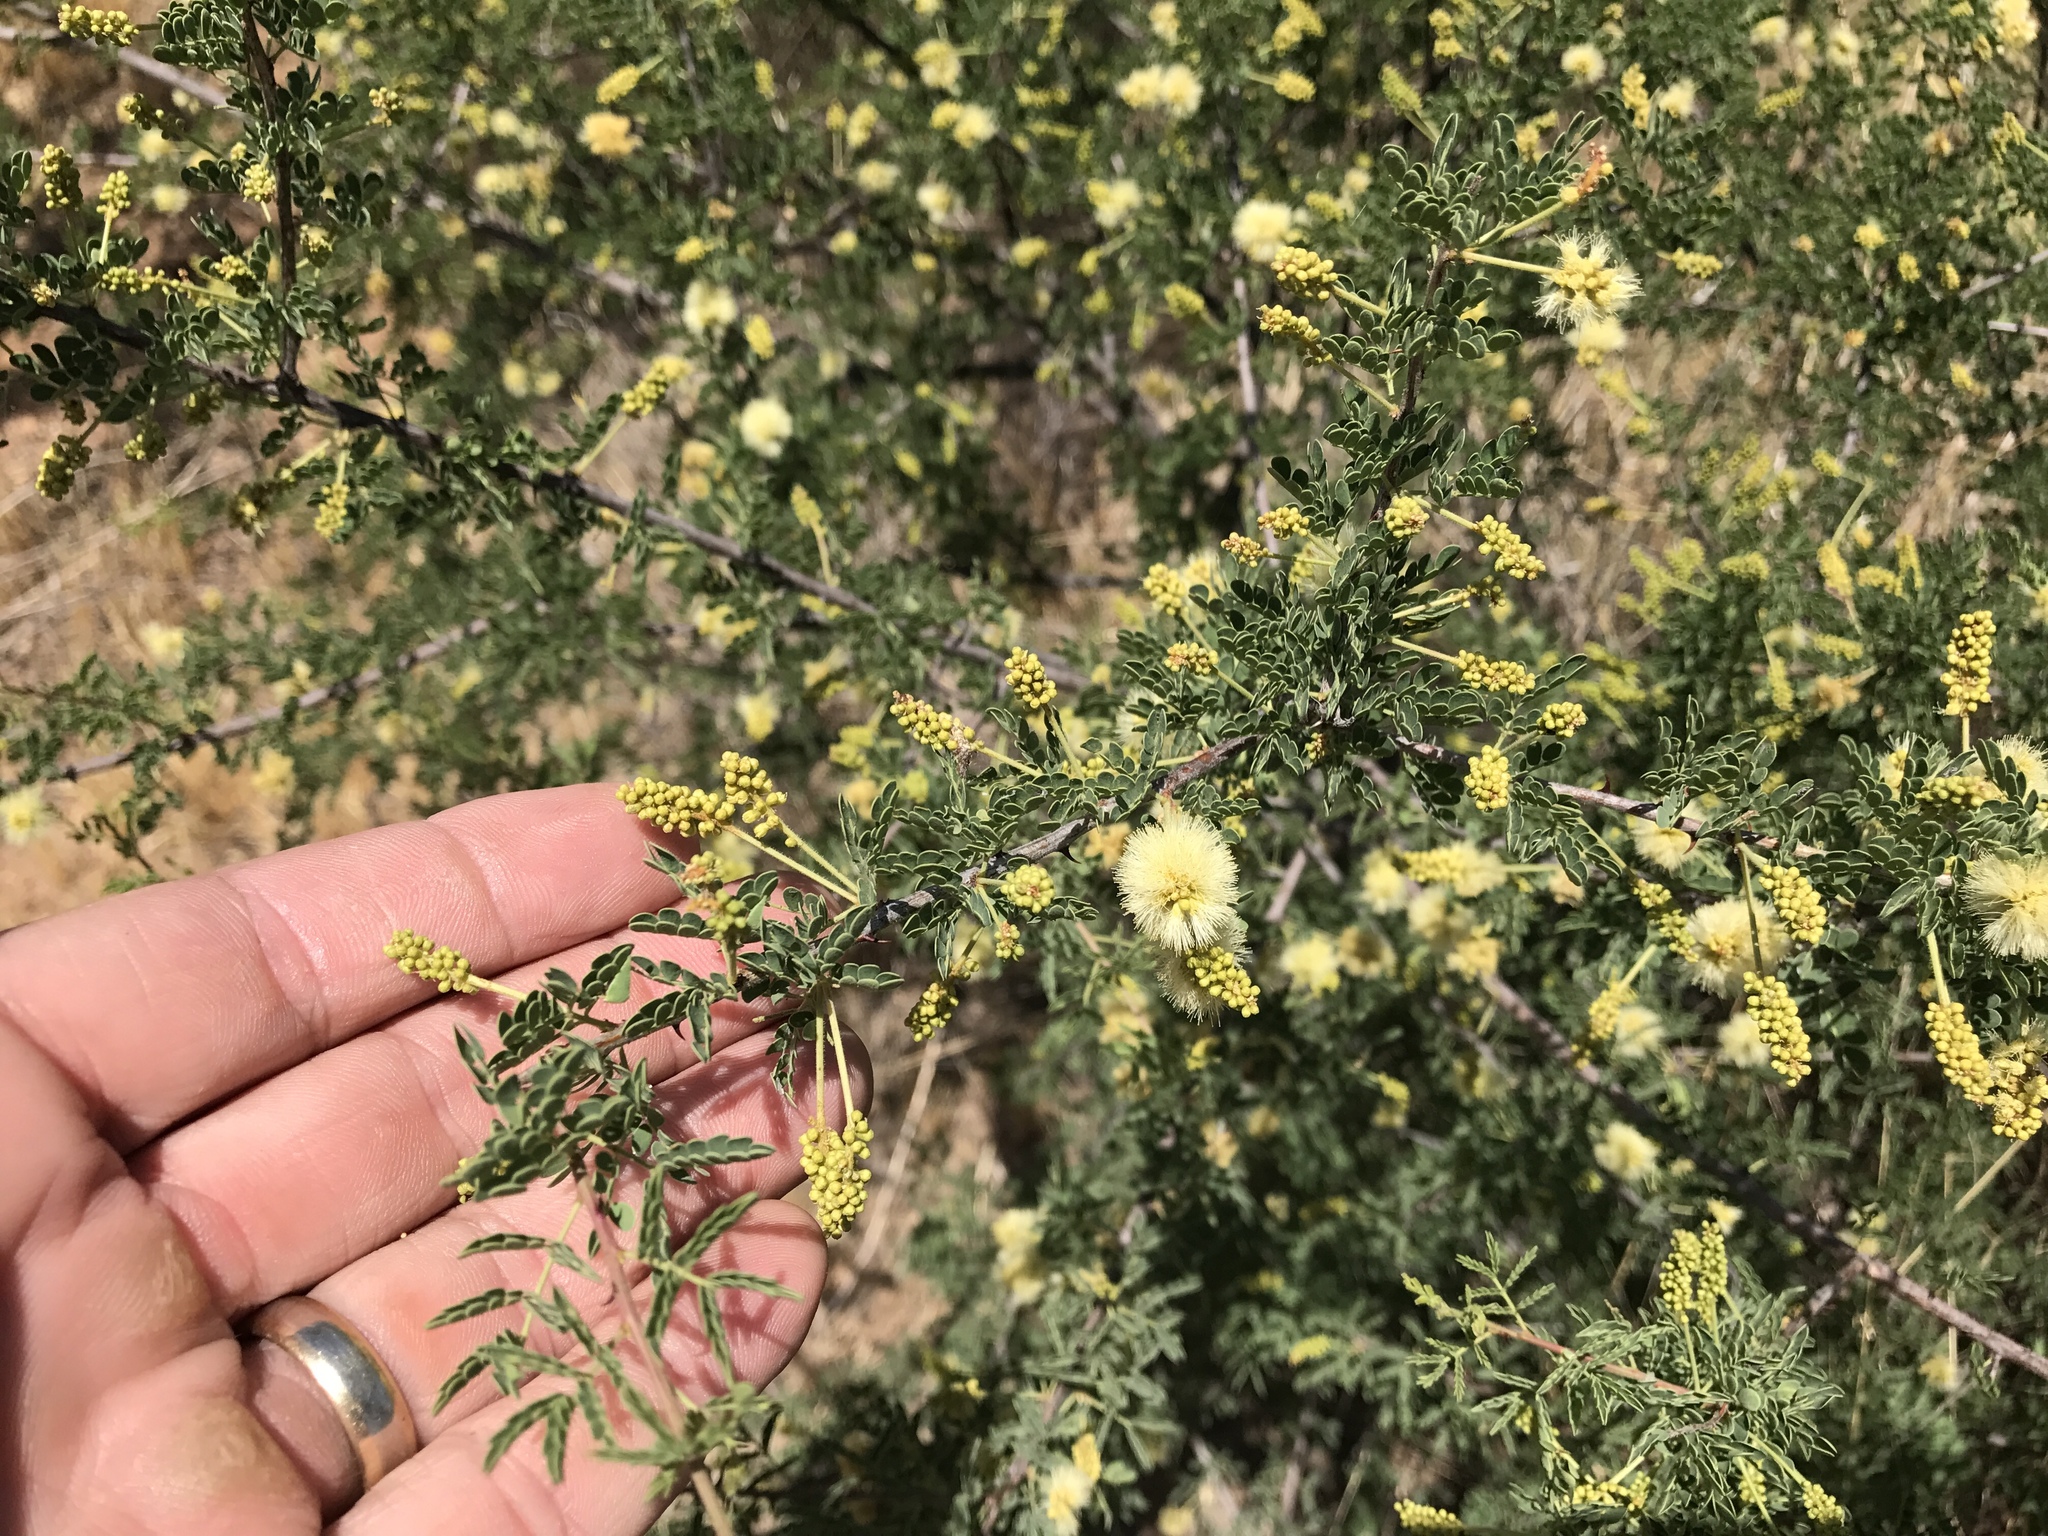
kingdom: Plantae
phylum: Tracheophyta
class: Magnoliopsida
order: Fabales
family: Fabaceae
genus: Senegalia
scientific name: Senegalia greggii
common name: Texas-mimosa
